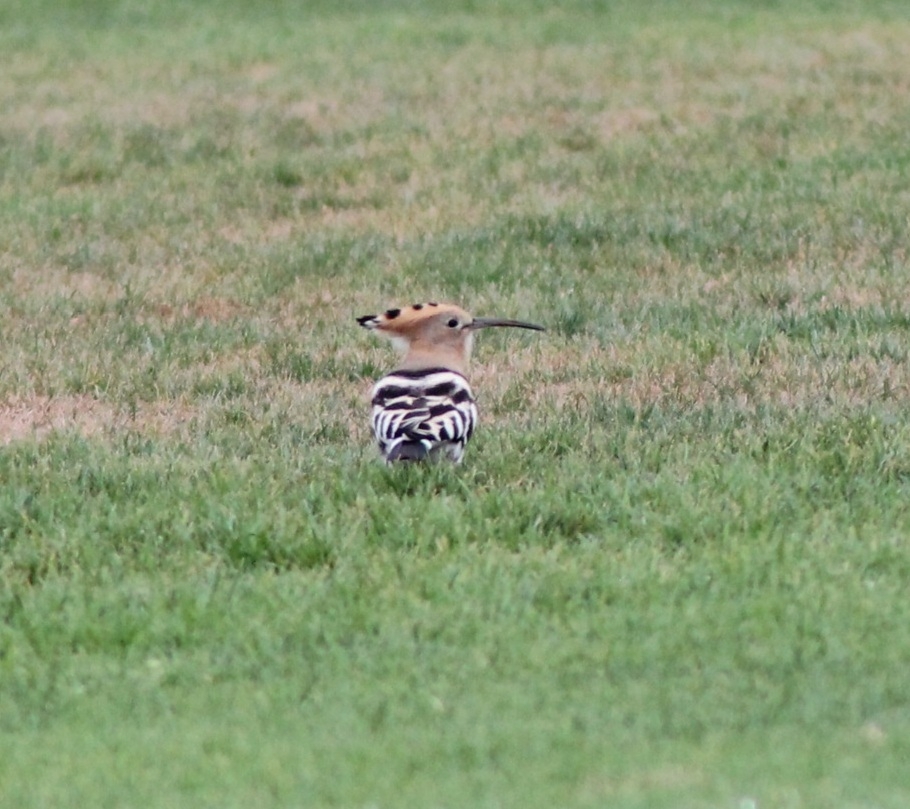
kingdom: Animalia
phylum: Chordata
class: Aves
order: Bucerotiformes
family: Upupidae
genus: Upupa
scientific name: Upupa epops
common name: Eurasian hoopoe
